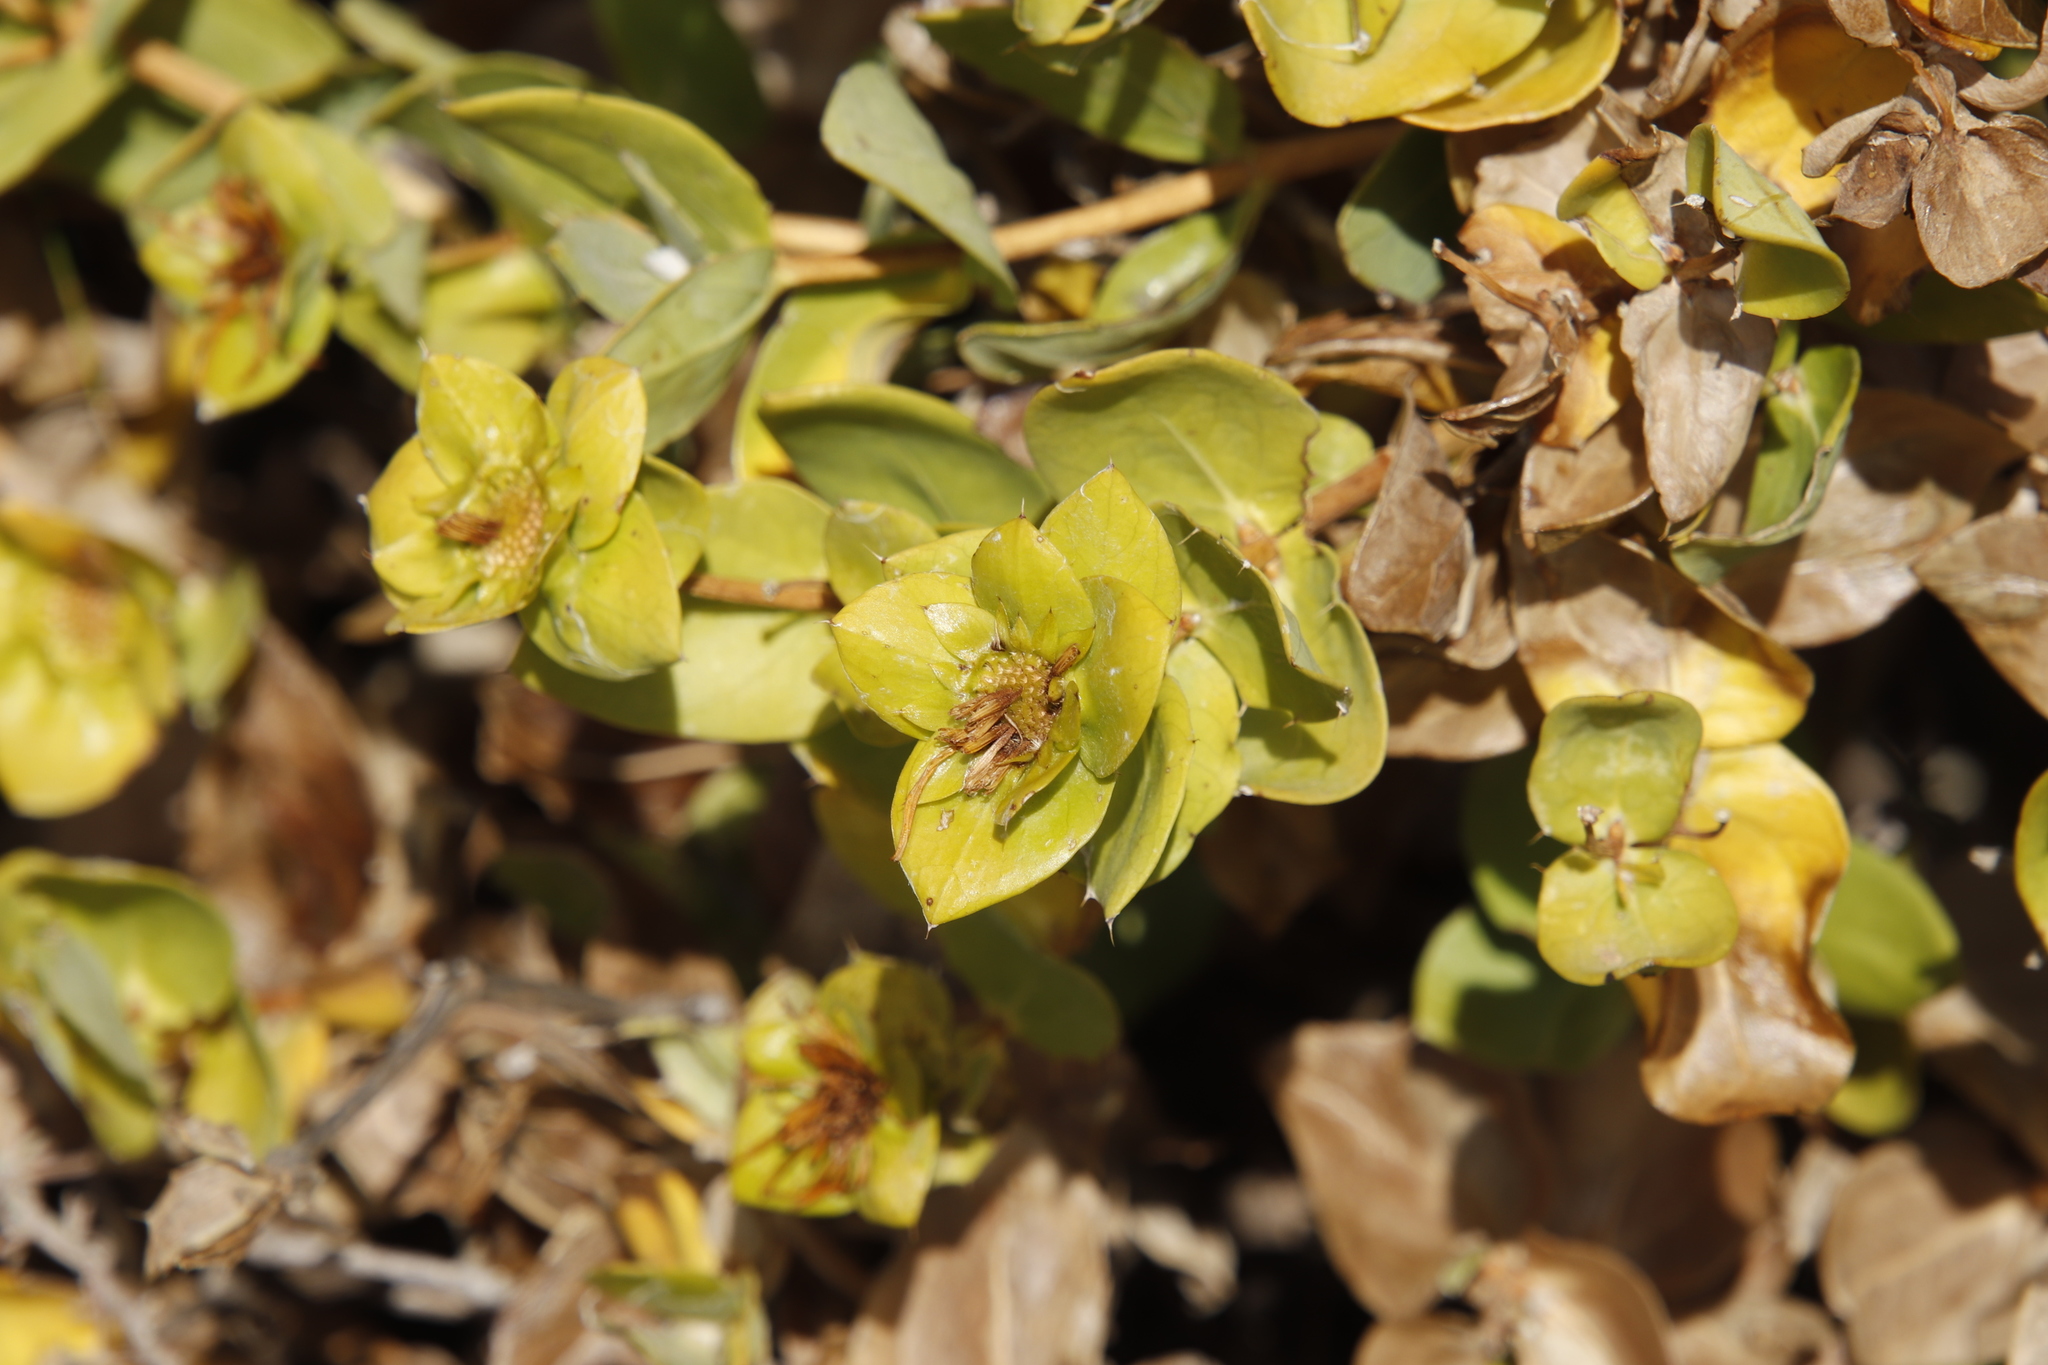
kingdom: Plantae
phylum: Tracheophyta
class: Magnoliopsida
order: Asterales
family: Asteraceae
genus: Didelta
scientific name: Didelta spinosa
